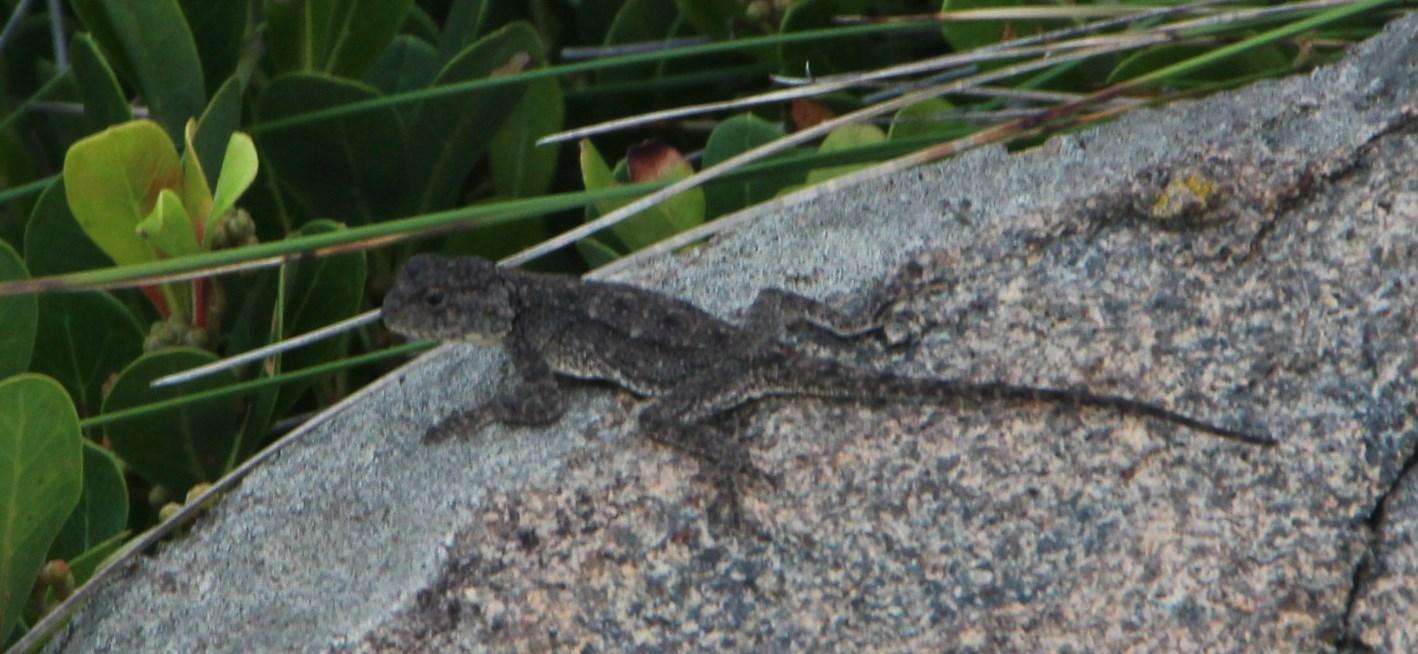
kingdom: Animalia
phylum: Chordata
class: Squamata
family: Agamidae
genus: Agama
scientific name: Agama atra
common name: Southern african rock agama
